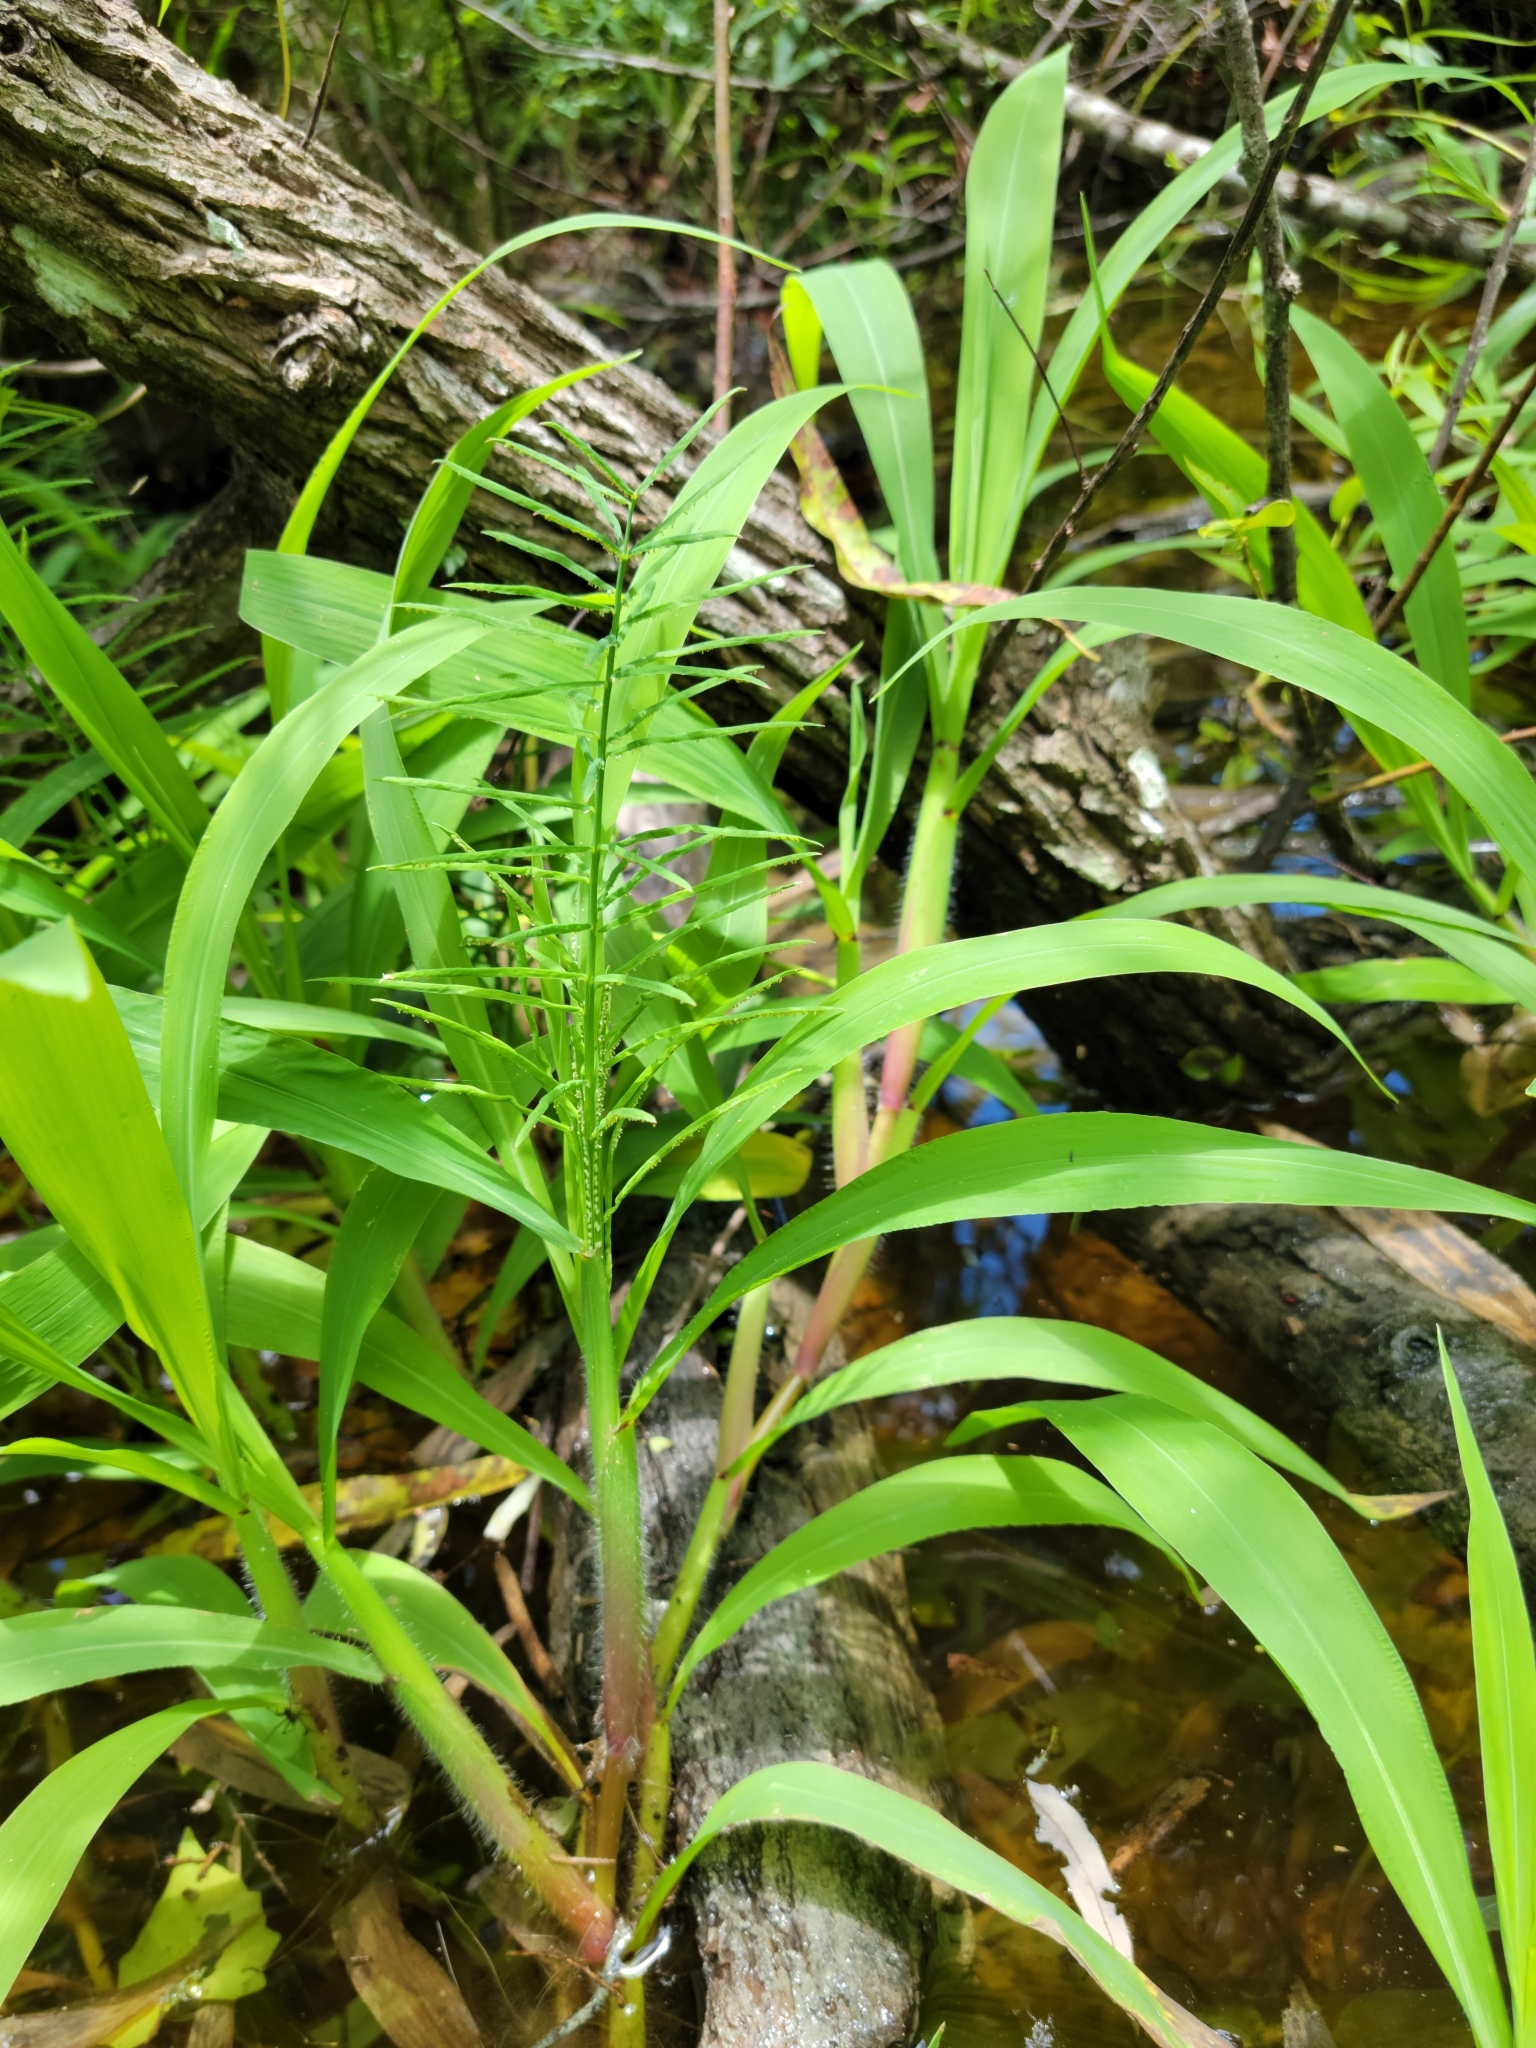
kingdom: Plantae
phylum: Tracheophyta
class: Liliopsida
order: Poales
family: Poaceae
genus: Paspalum
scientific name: Paspalum repens
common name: Water paspalum
